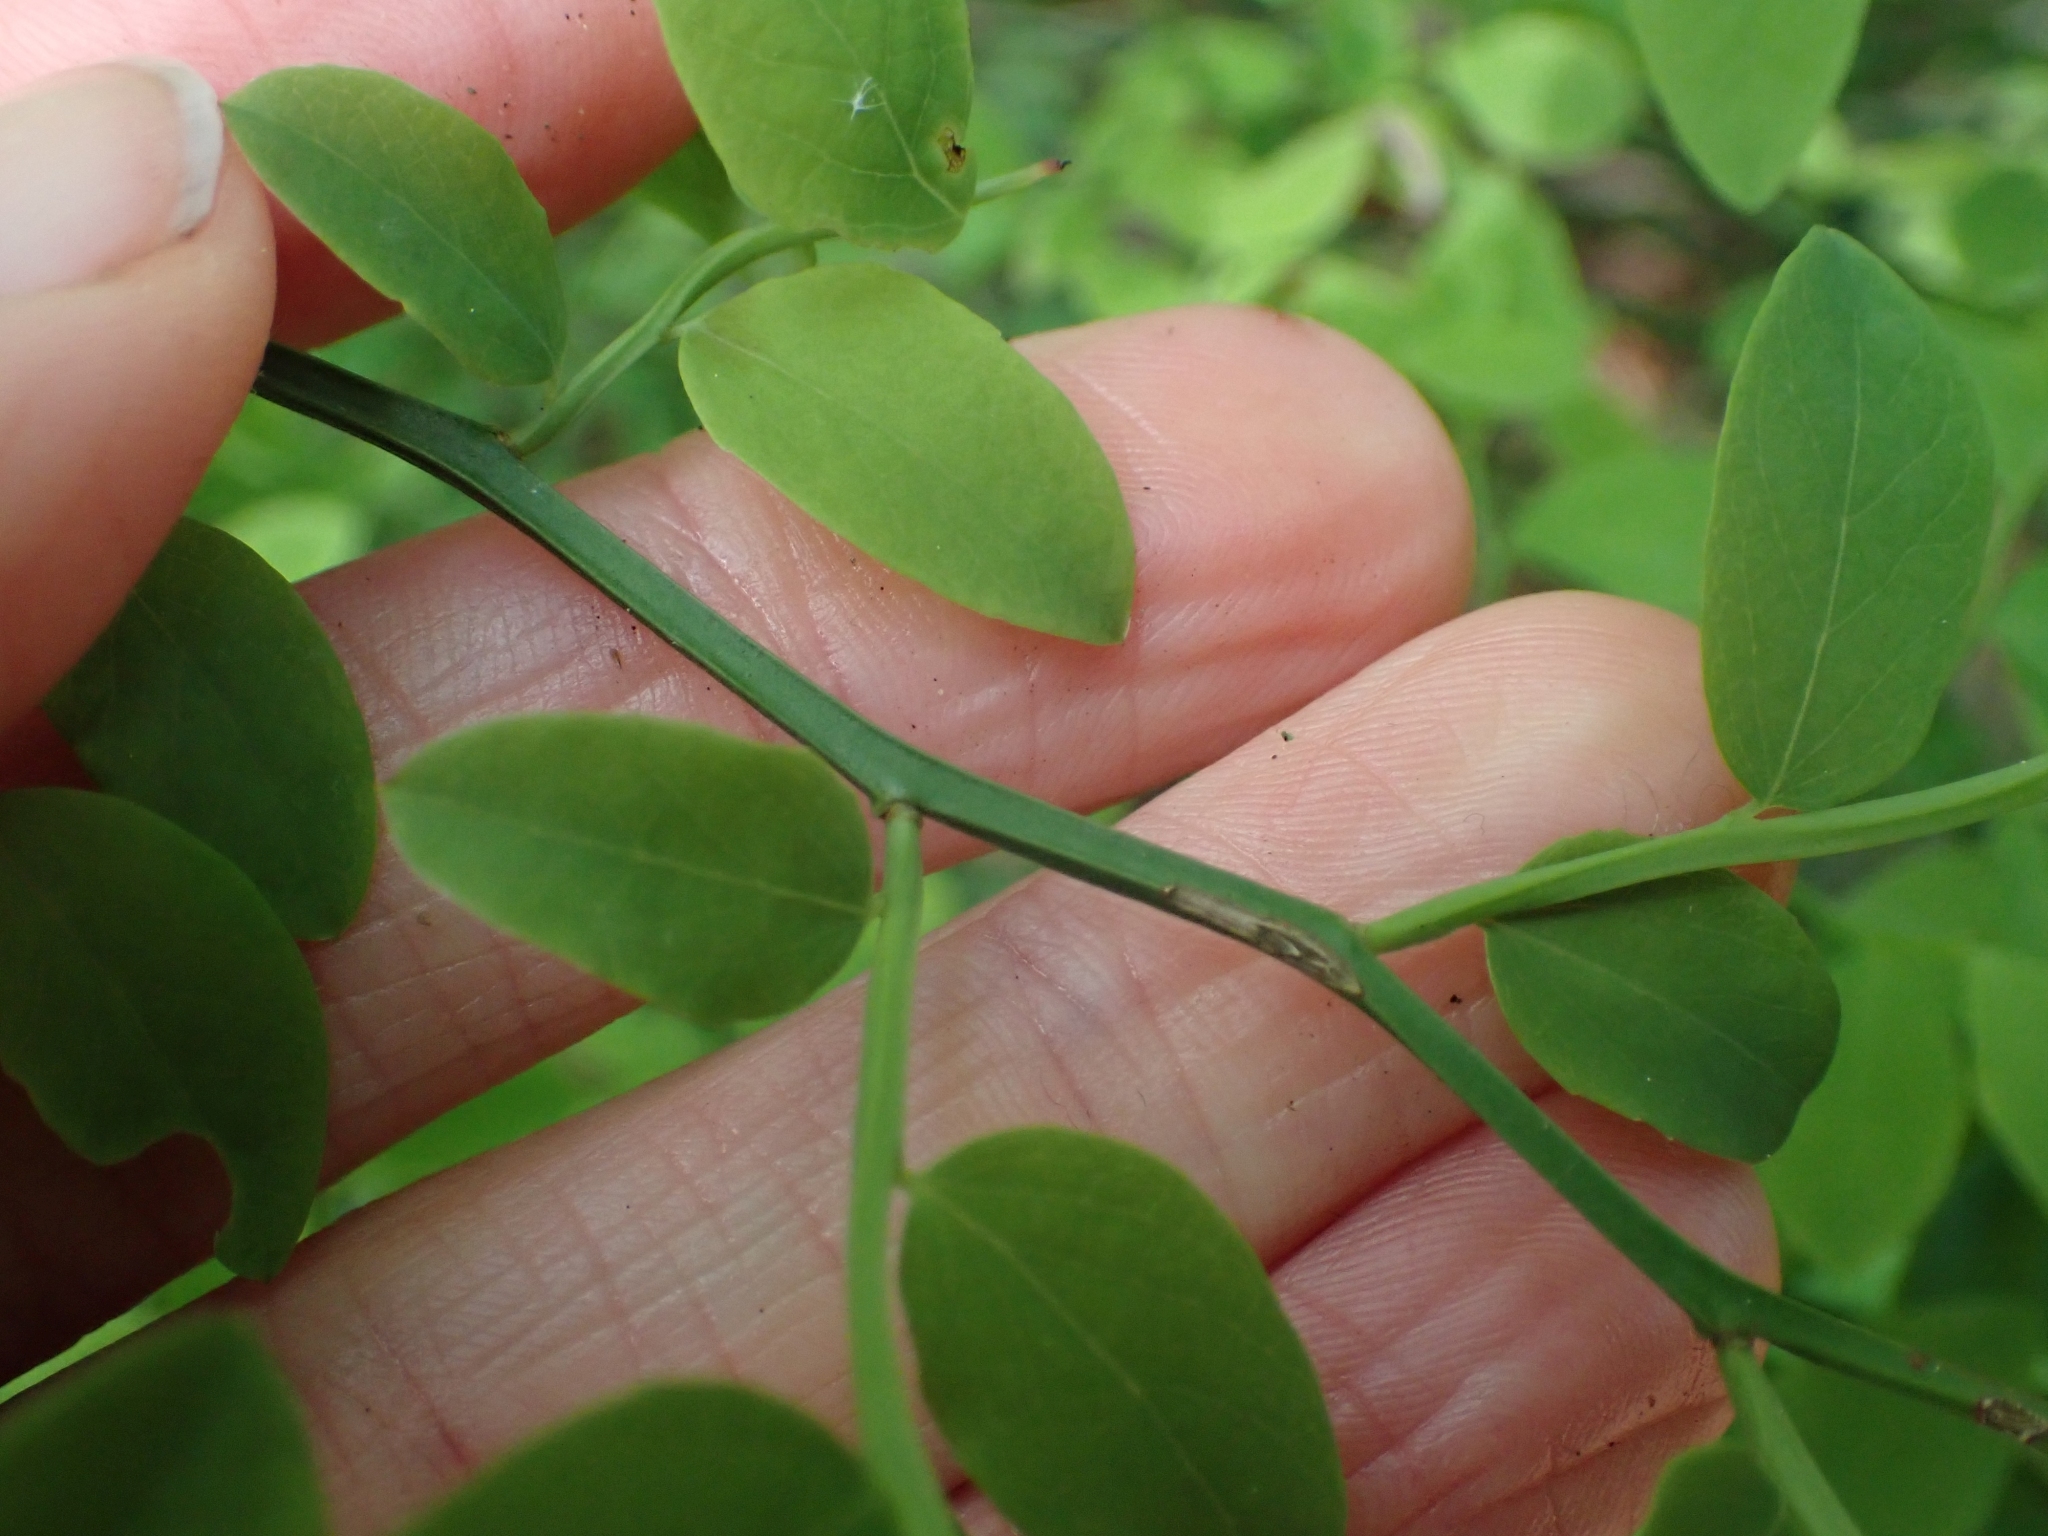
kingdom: Plantae
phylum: Tracheophyta
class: Magnoliopsida
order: Ericales
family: Ericaceae
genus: Vaccinium
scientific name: Vaccinium parvifolium
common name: Red-huckleberry
